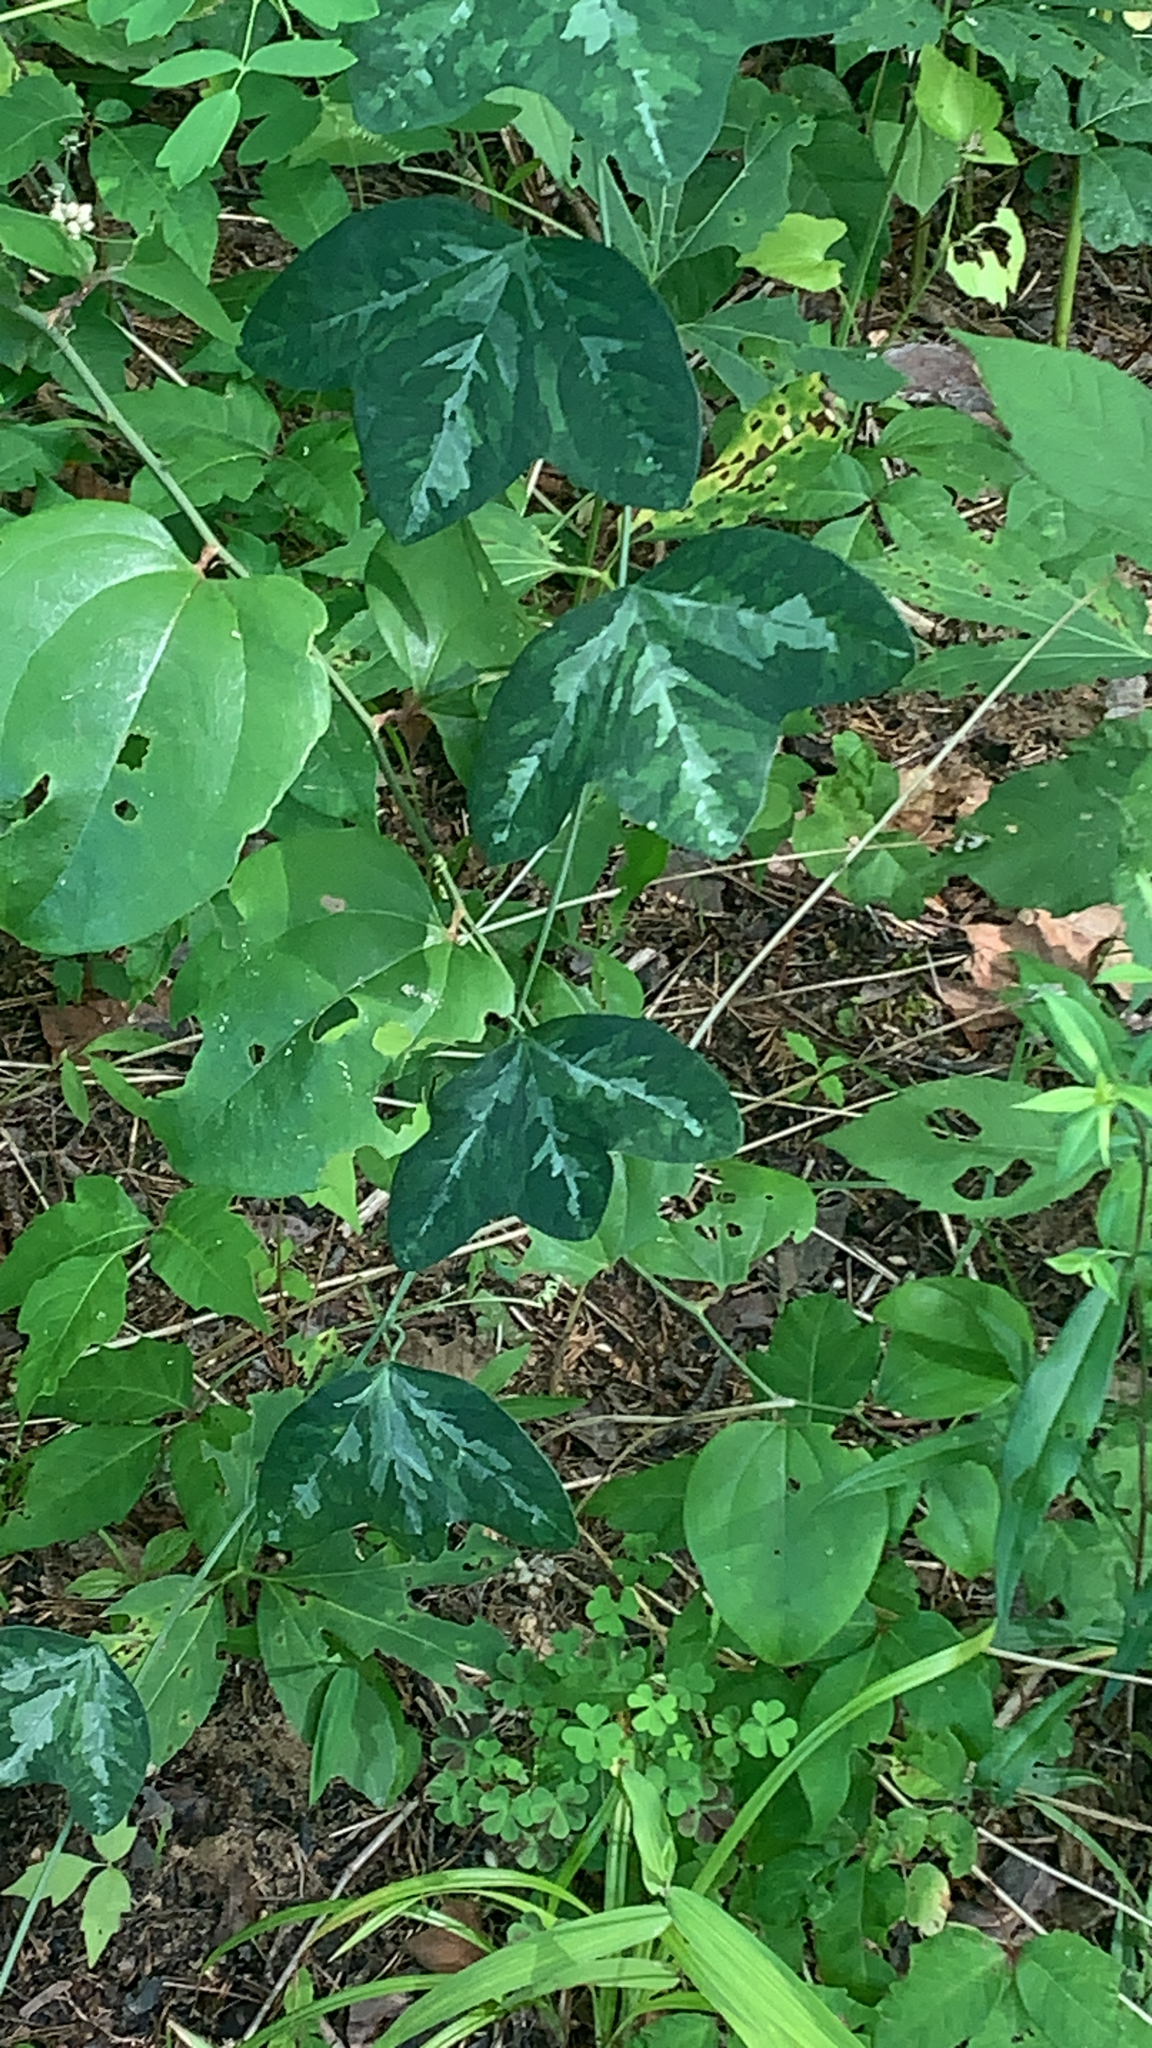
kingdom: Plantae
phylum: Tracheophyta
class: Magnoliopsida
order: Malpighiales
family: Passifloraceae
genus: Passiflora
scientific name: Passiflora lutea
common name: Yellow passionflower
